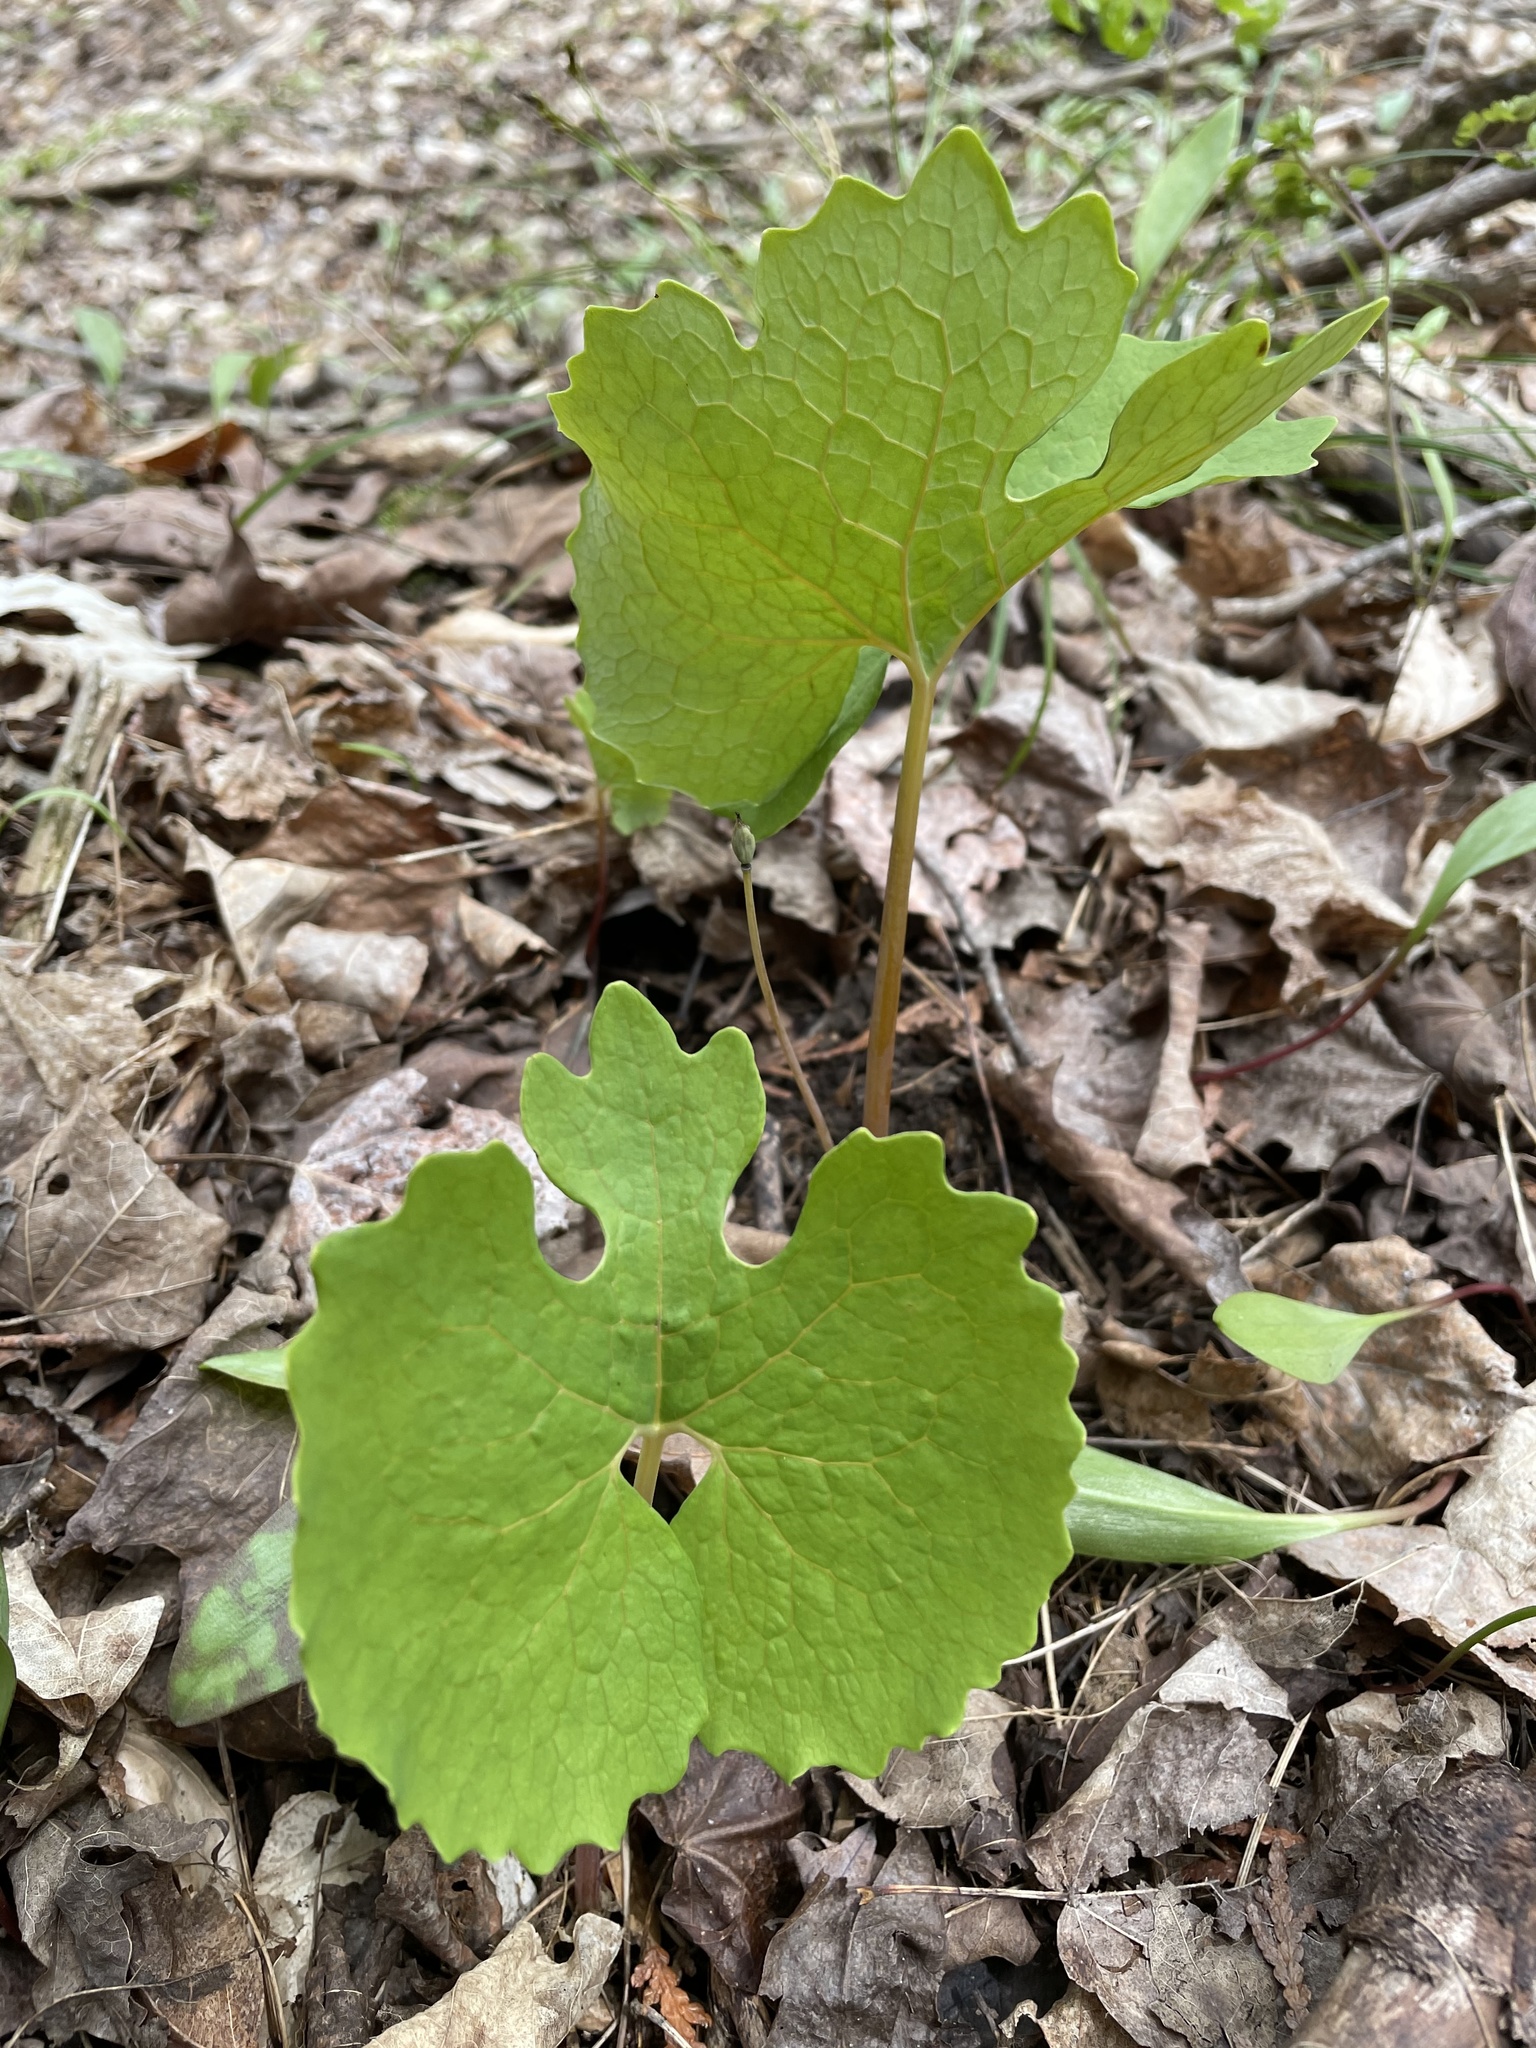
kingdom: Plantae
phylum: Tracheophyta
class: Magnoliopsida
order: Ranunculales
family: Papaveraceae
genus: Sanguinaria
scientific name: Sanguinaria canadensis
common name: Bloodroot
